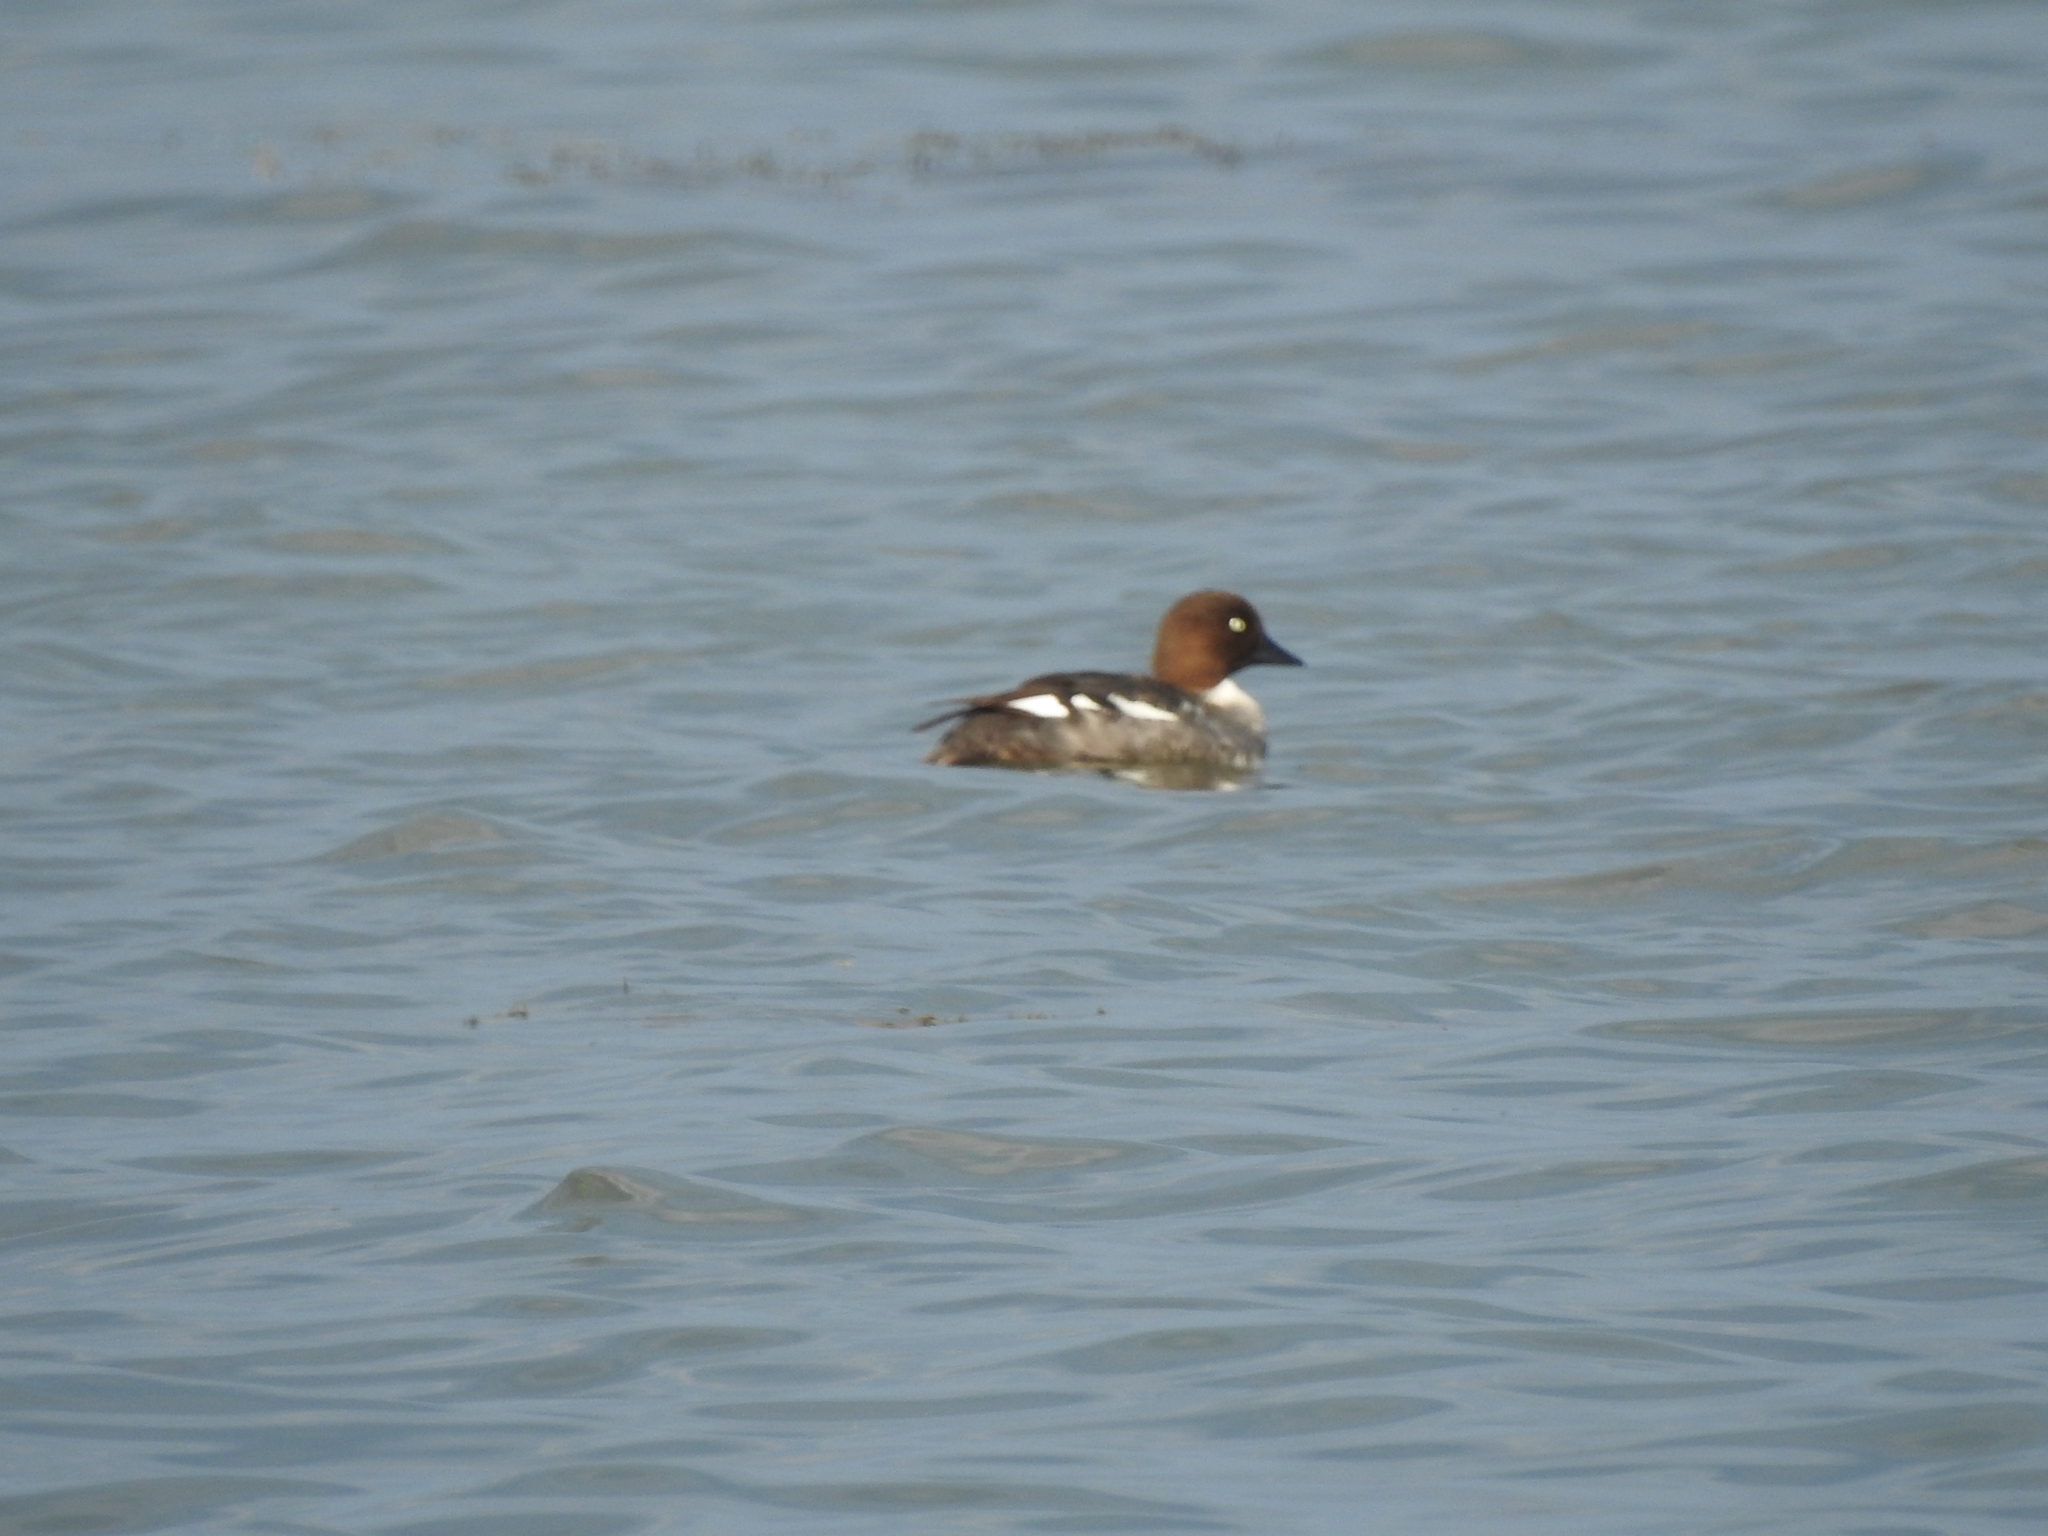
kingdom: Animalia
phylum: Chordata
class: Aves
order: Anseriformes
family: Anatidae
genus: Bucephala
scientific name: Bucephala clangula
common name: Common goldeneye
